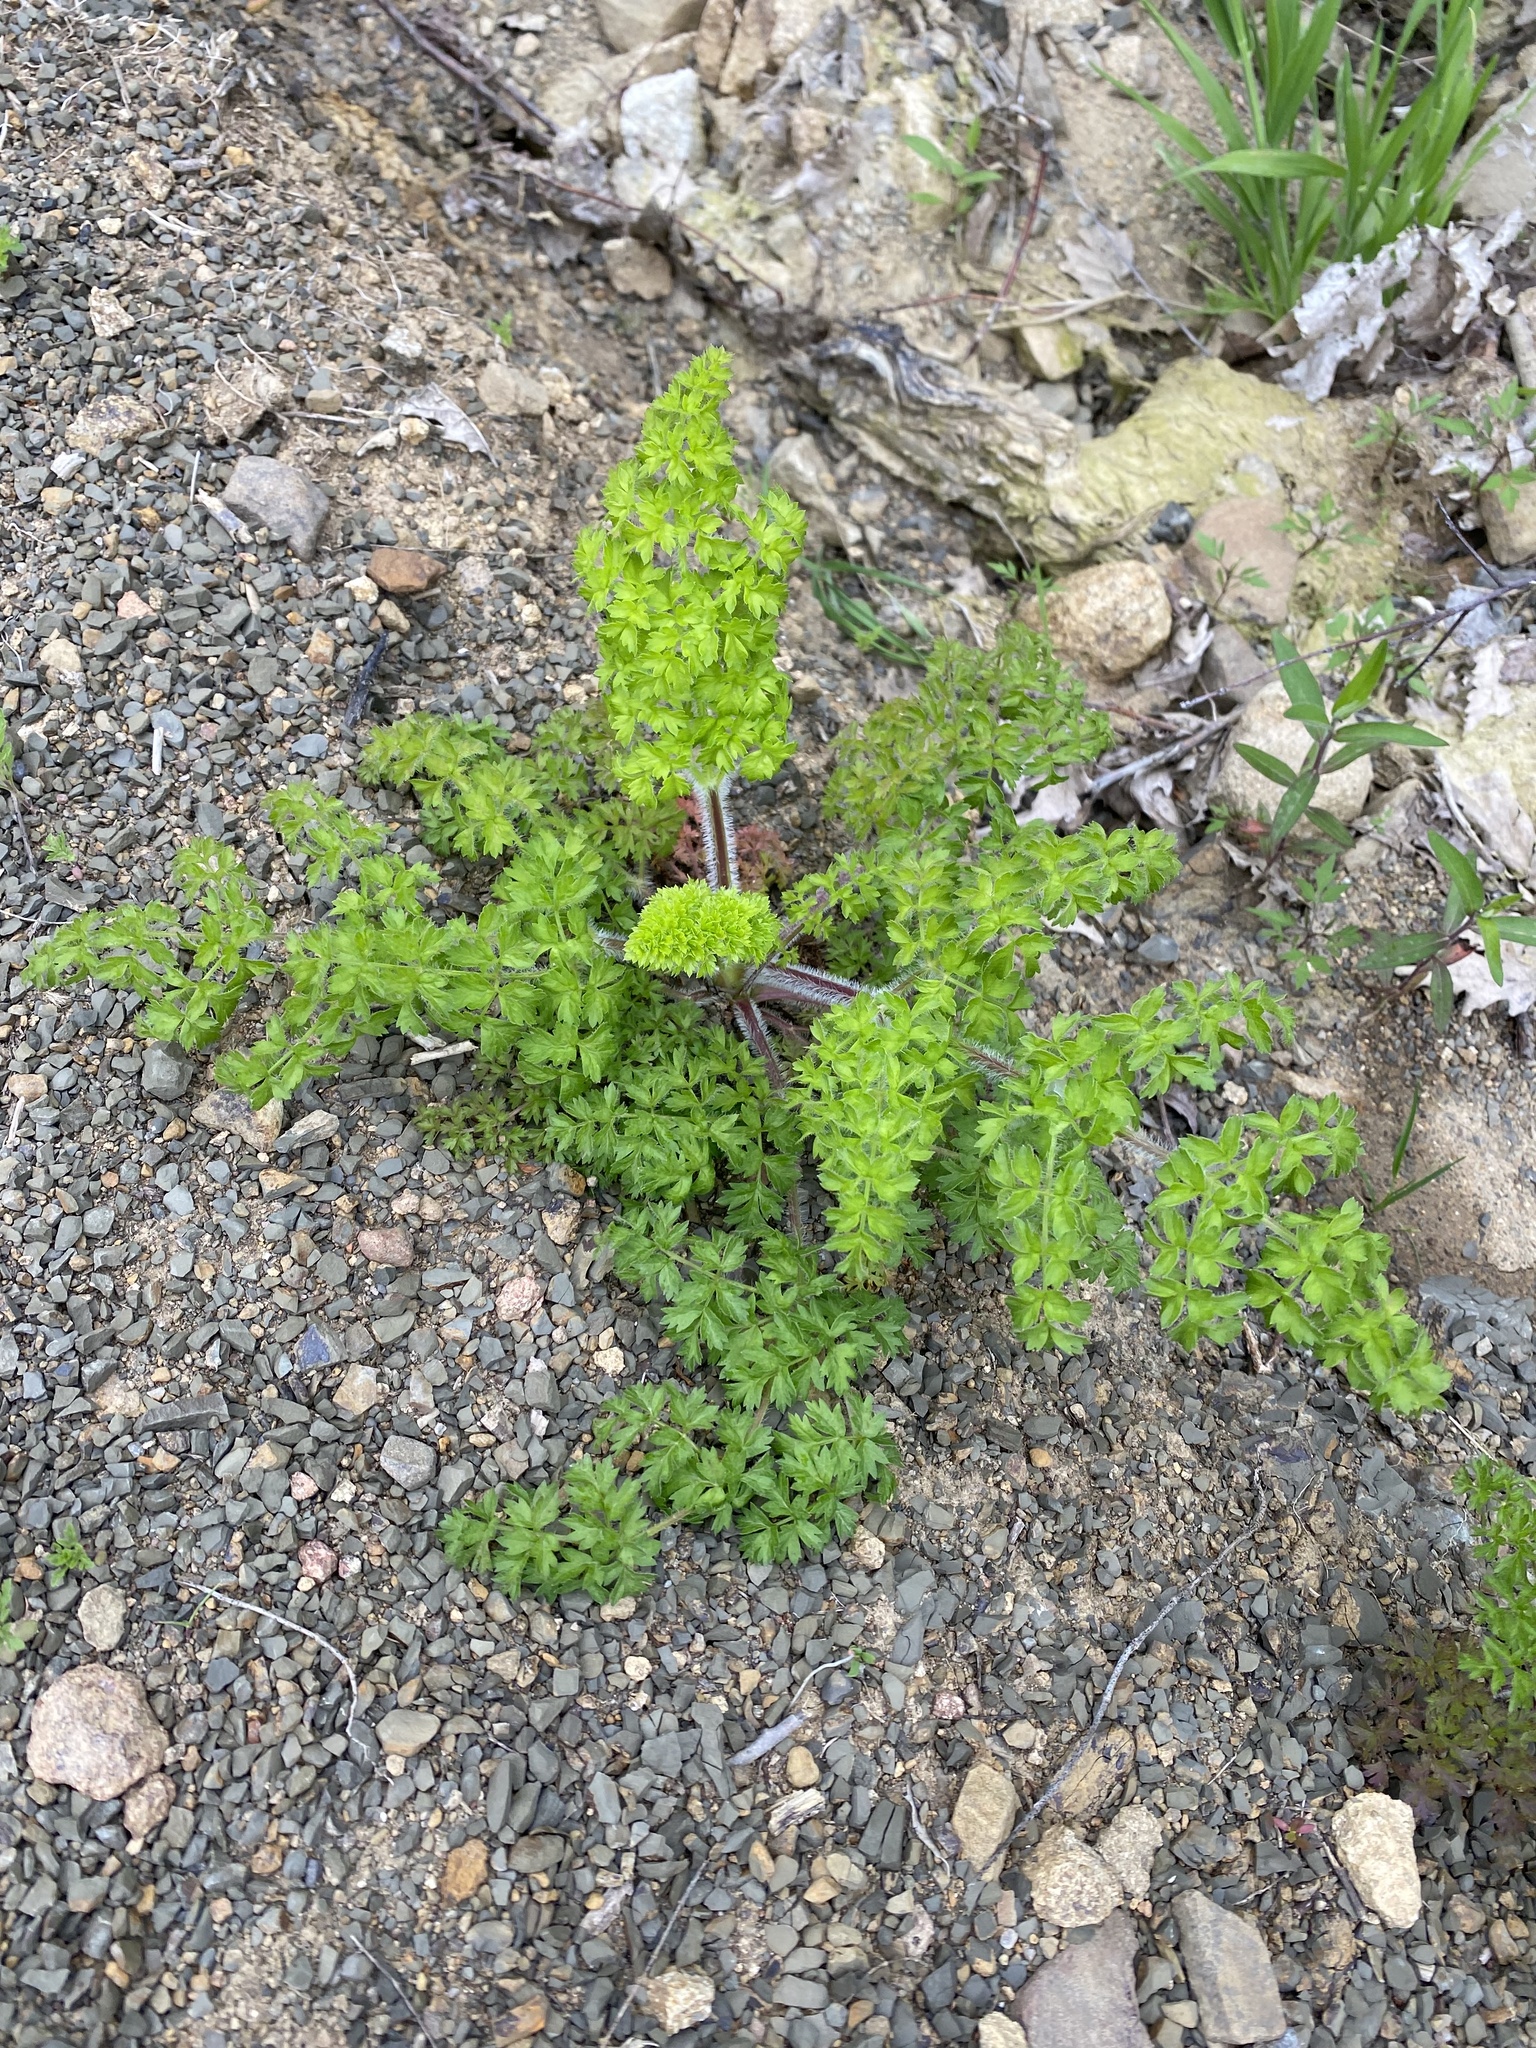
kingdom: Plantae
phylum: Tracheophyta
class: Magnoliopsida
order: Apiales
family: Apiaceae
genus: Silphiodaucus
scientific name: Silphiodaucus hispidus
